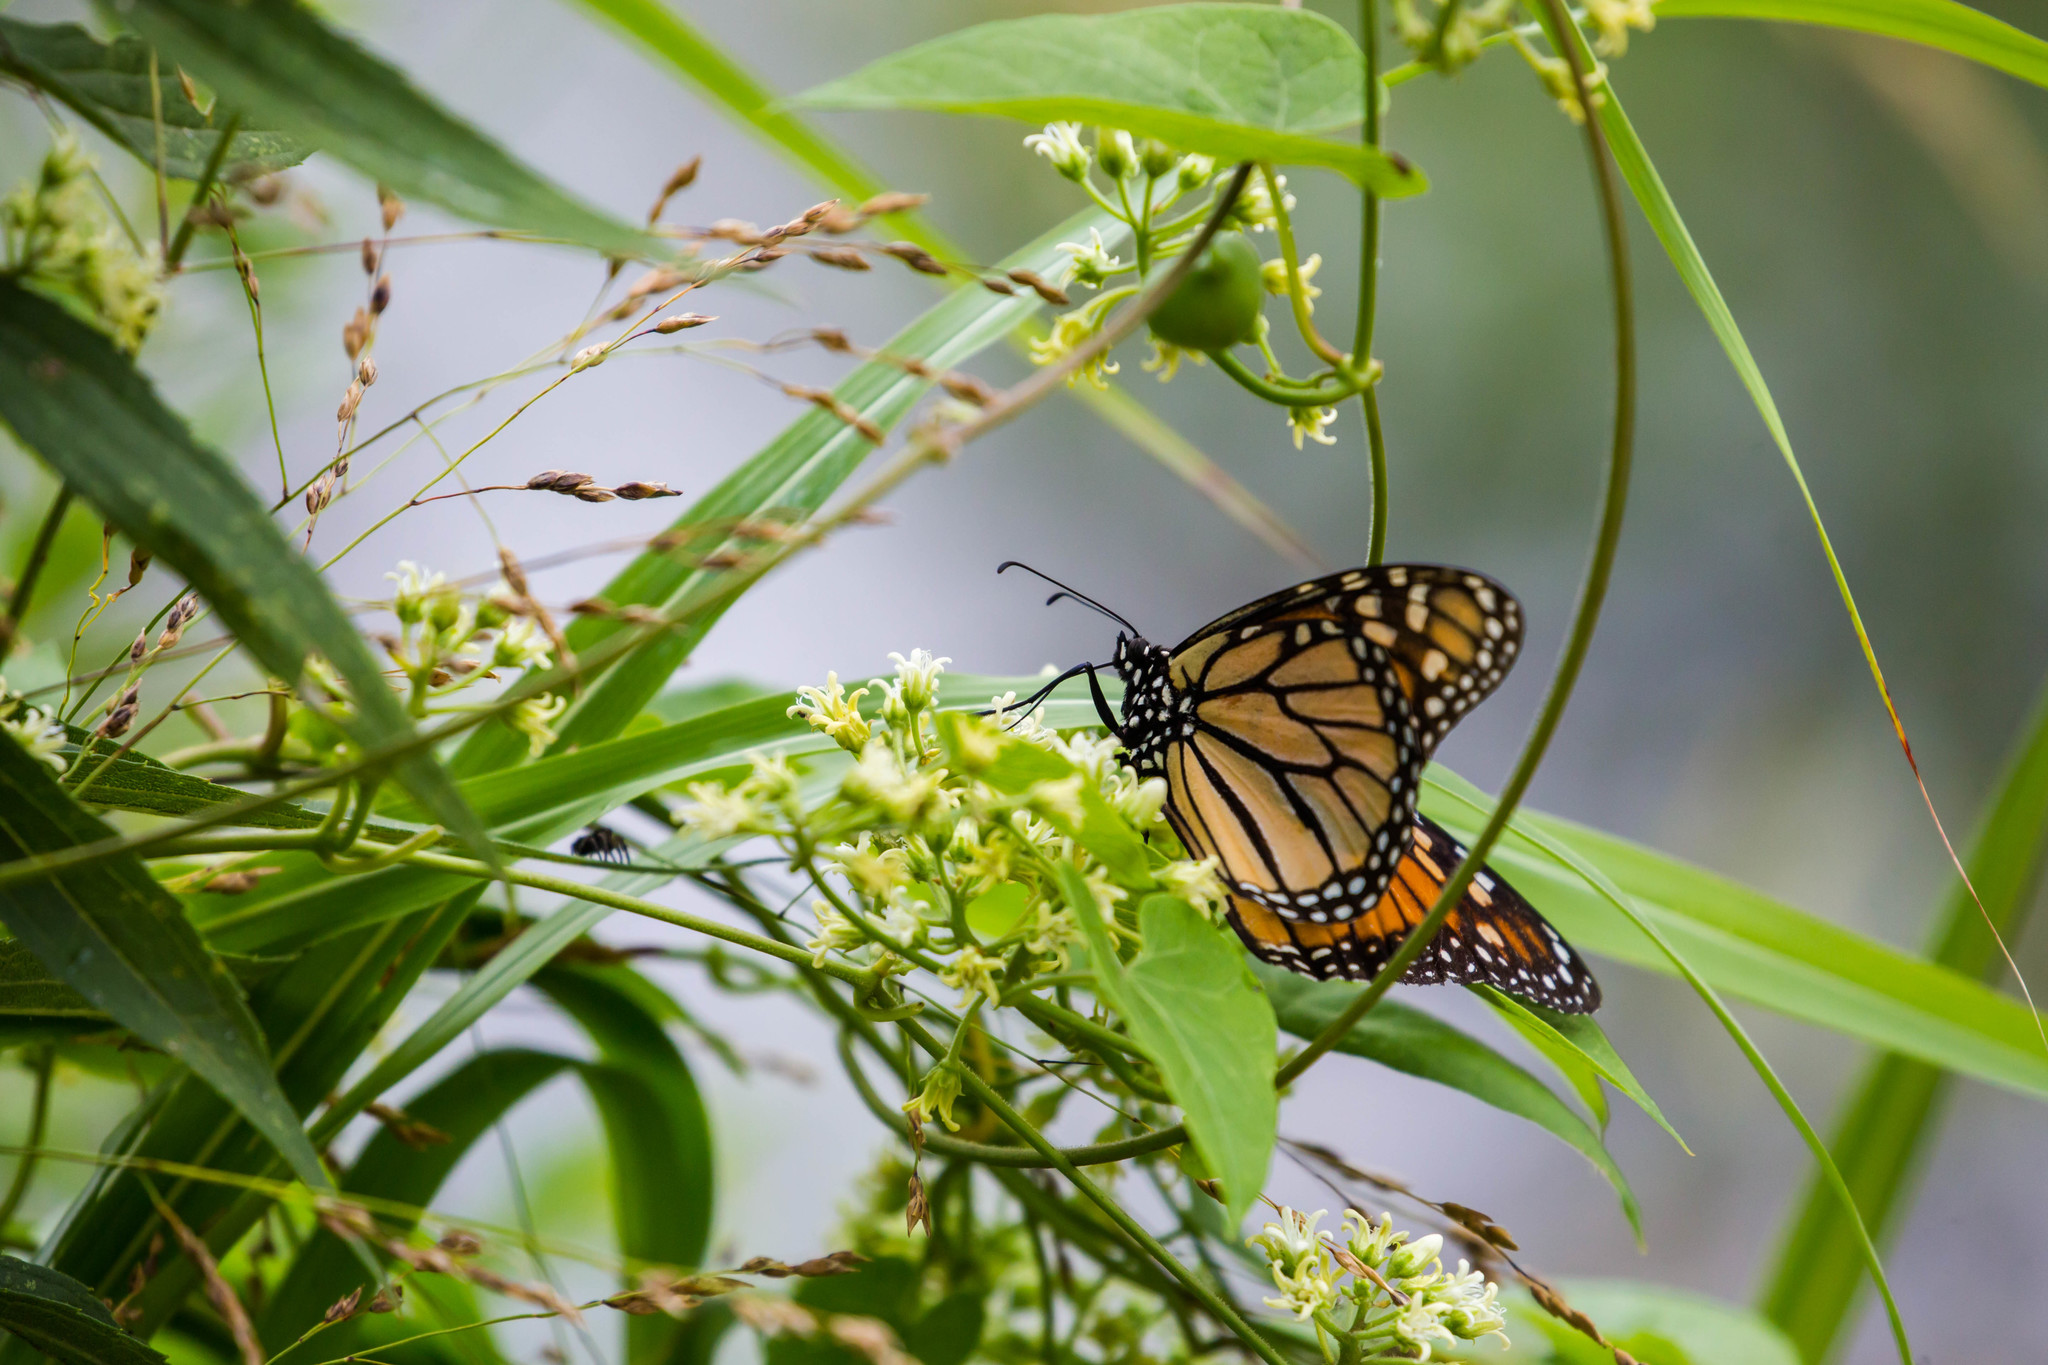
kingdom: Animalia
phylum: Arthropoda
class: Insecta
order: Lepidoptera
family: Nymphalidae
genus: Danaus
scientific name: Danaus plexippus
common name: Monarch
